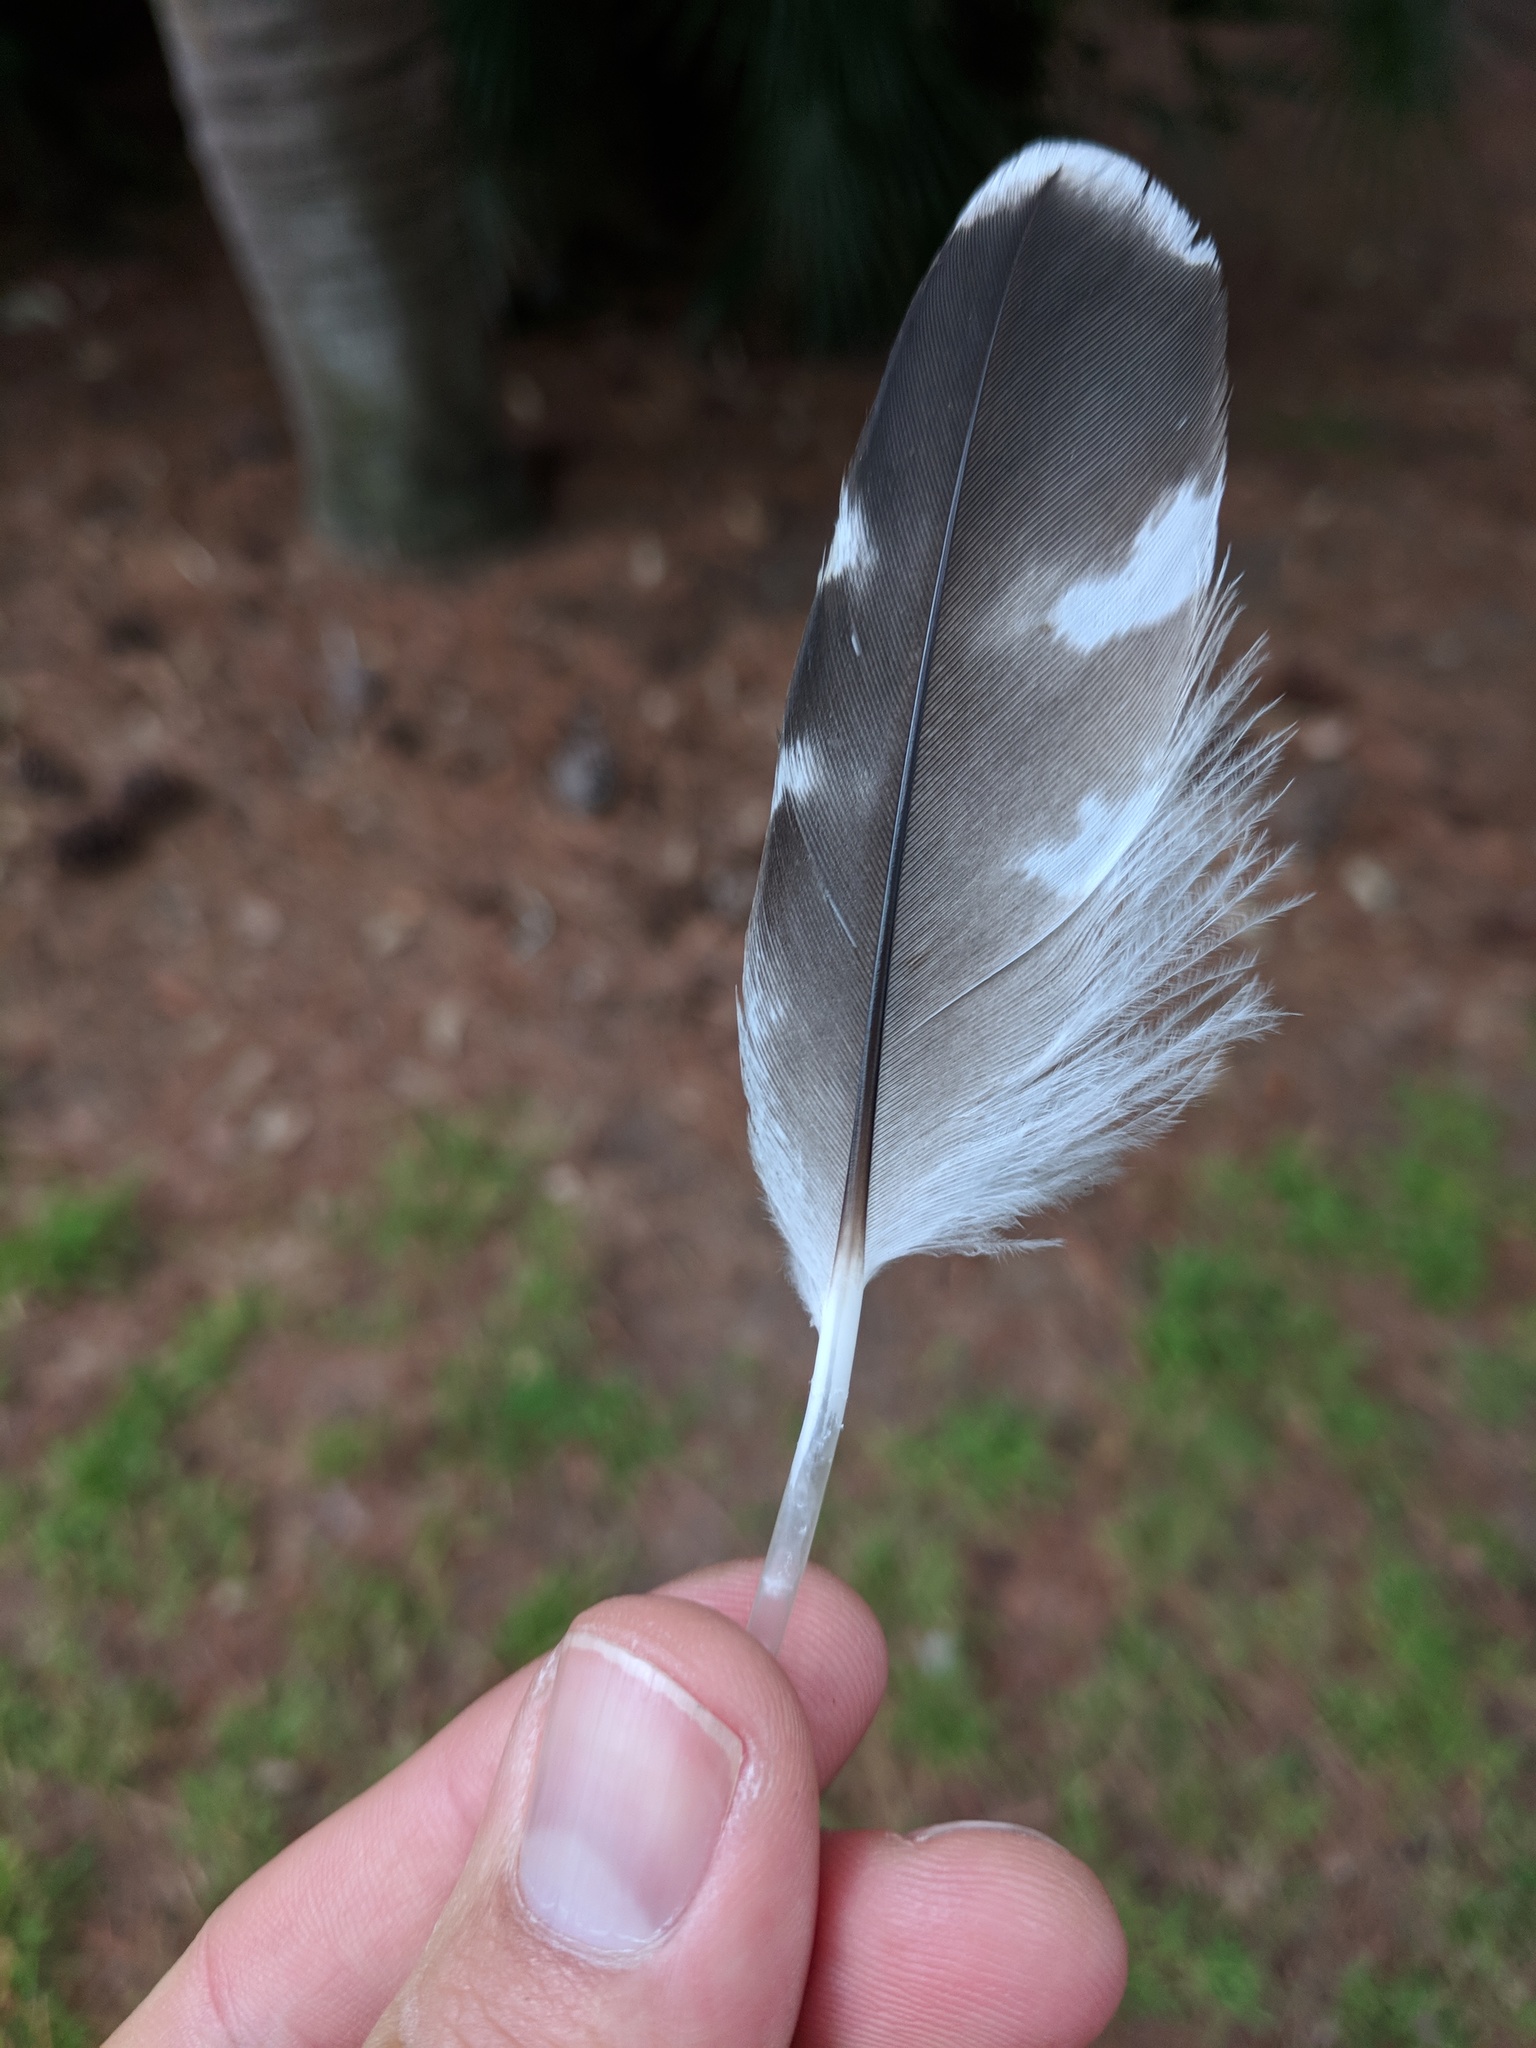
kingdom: Animalia
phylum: Chordata
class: Aves
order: Accipitriformes
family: Accipitridae
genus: Buteo
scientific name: Buteo lineatus
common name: Red-shouldered hawk
